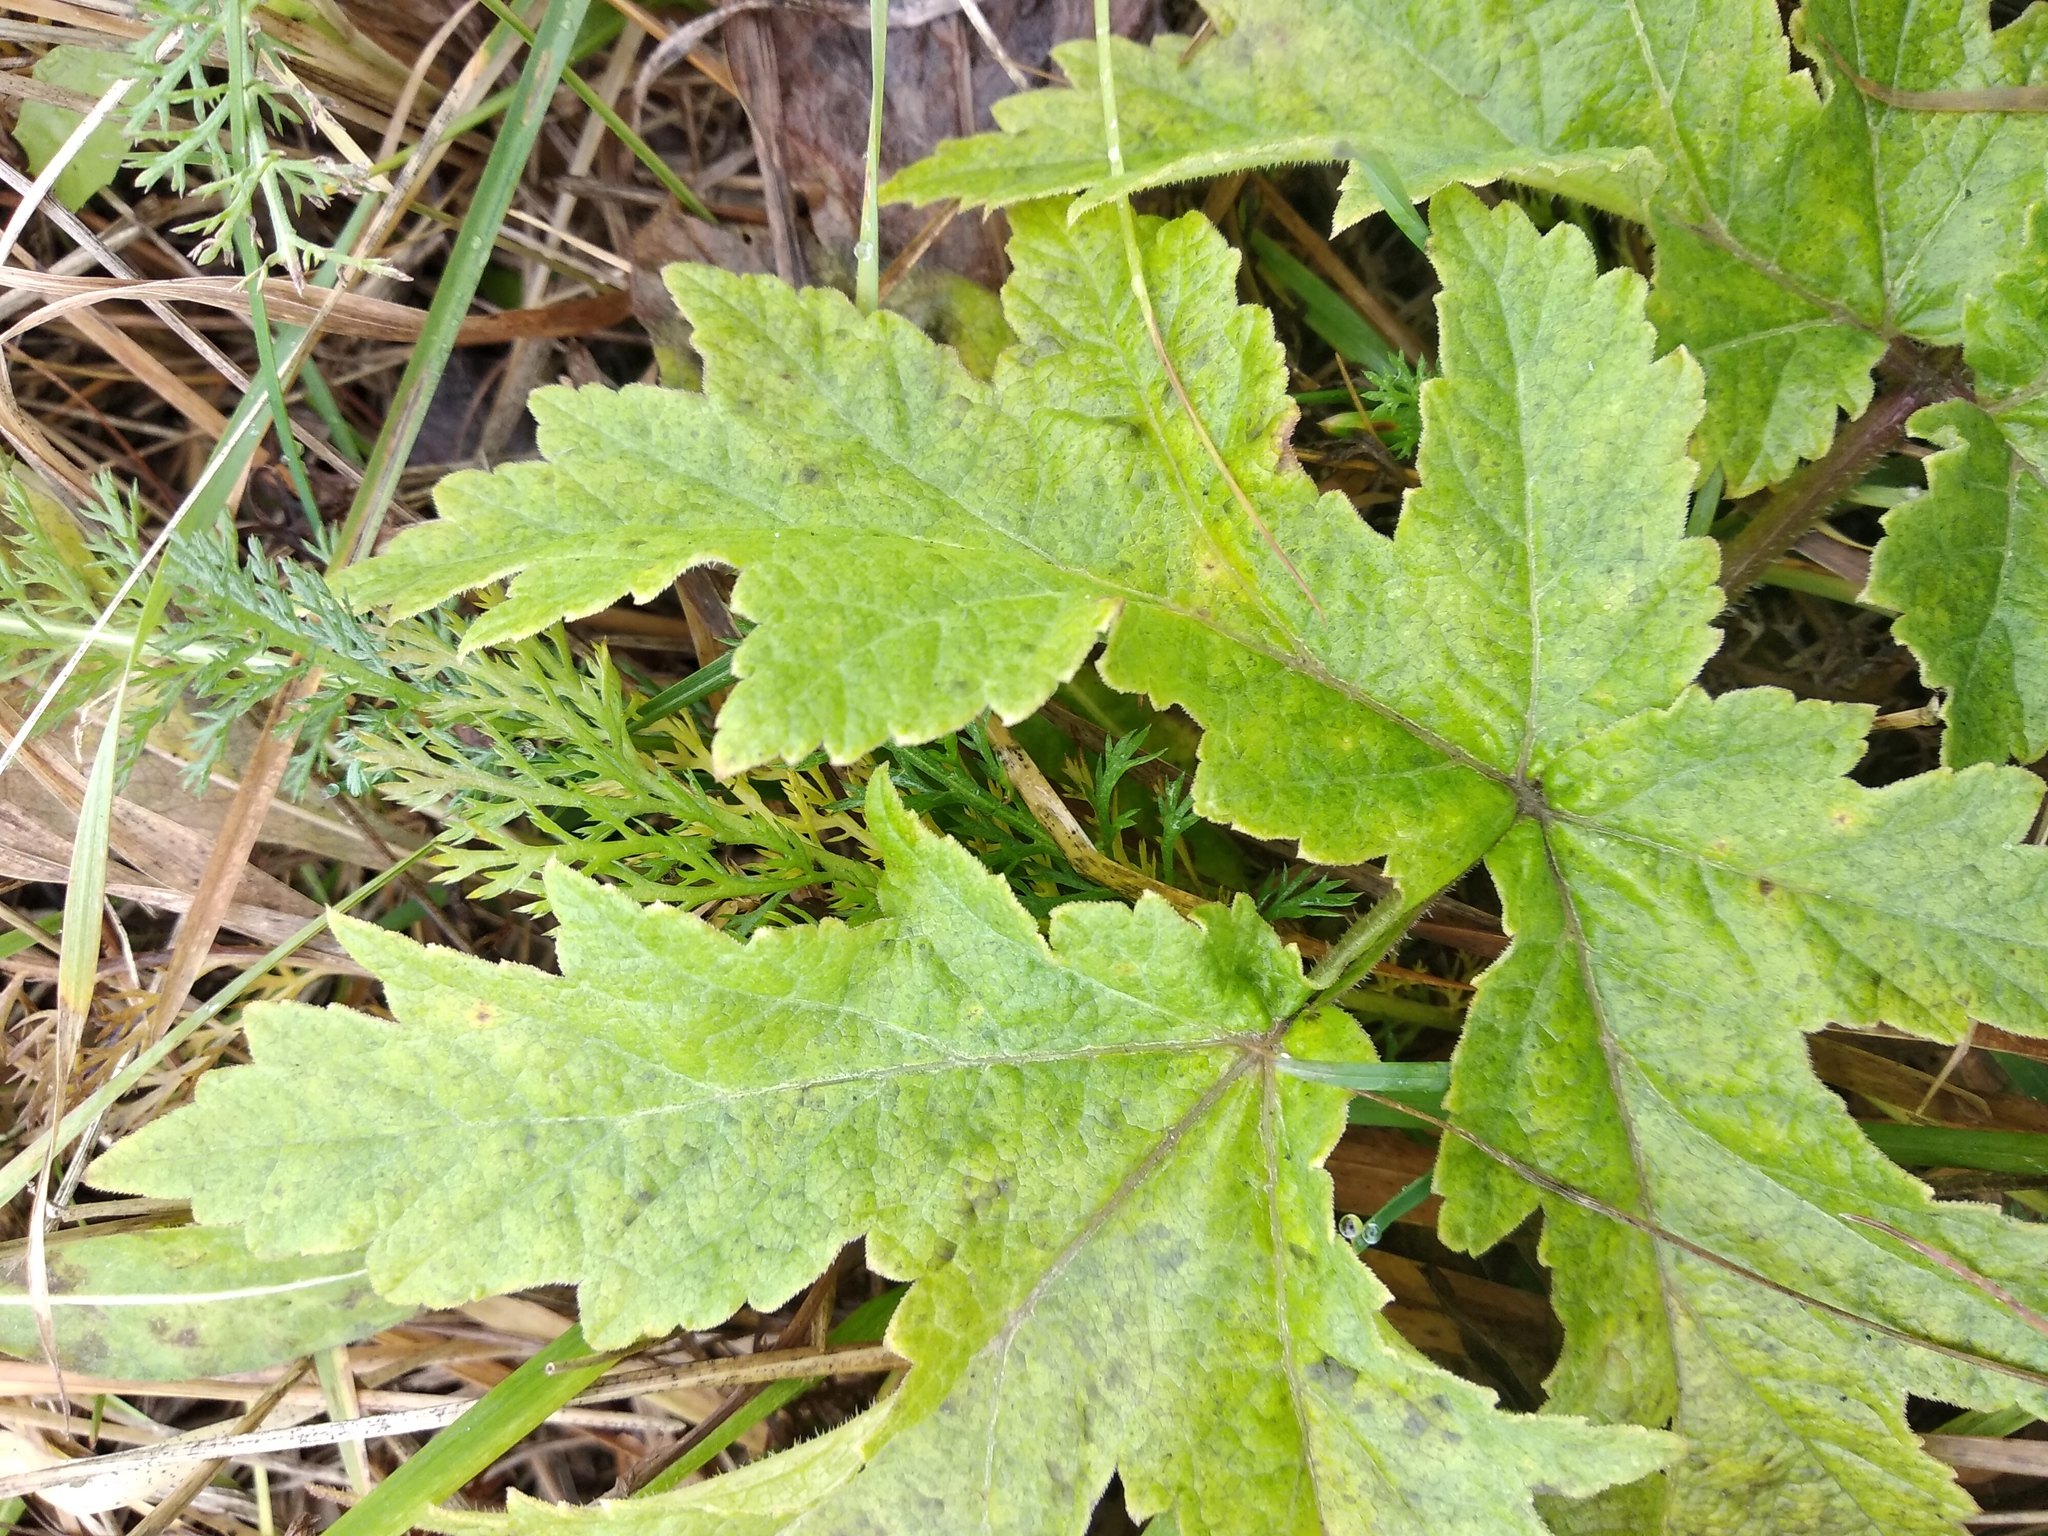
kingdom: Plantae
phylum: Tracheophyta
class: Magnoliopsida
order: Apiales
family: Apiaceae
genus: Heracleum
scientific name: Heracleum sphondylium
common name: Hogweed
